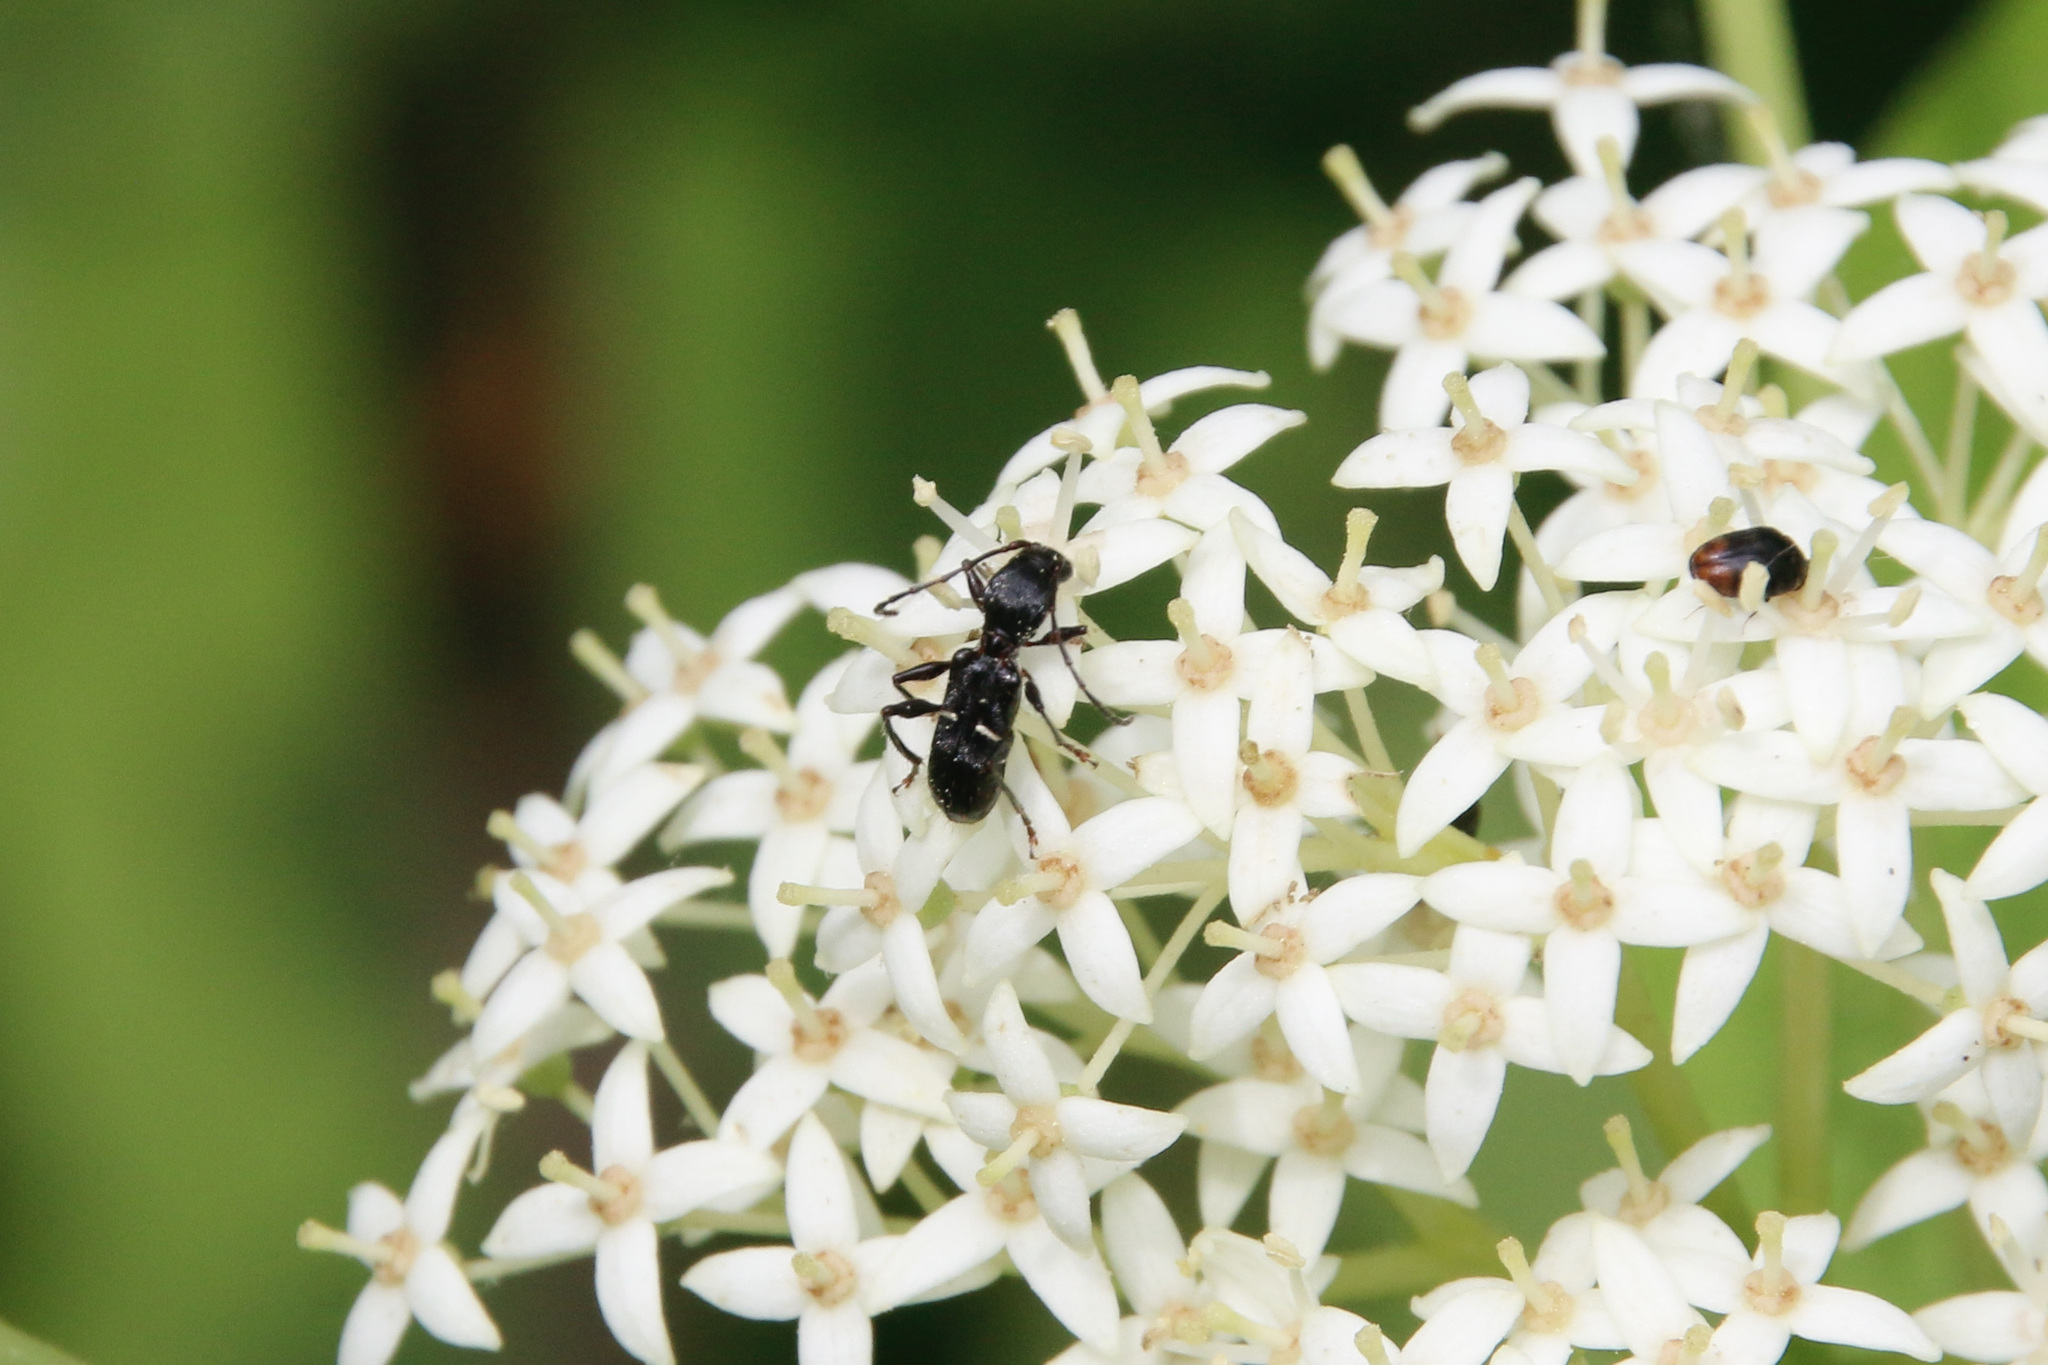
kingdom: Animalia
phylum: Arthropoda
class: Insecta
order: Coleoptera
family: Cerambycidae
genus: Euderces
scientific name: Euderces picipes
